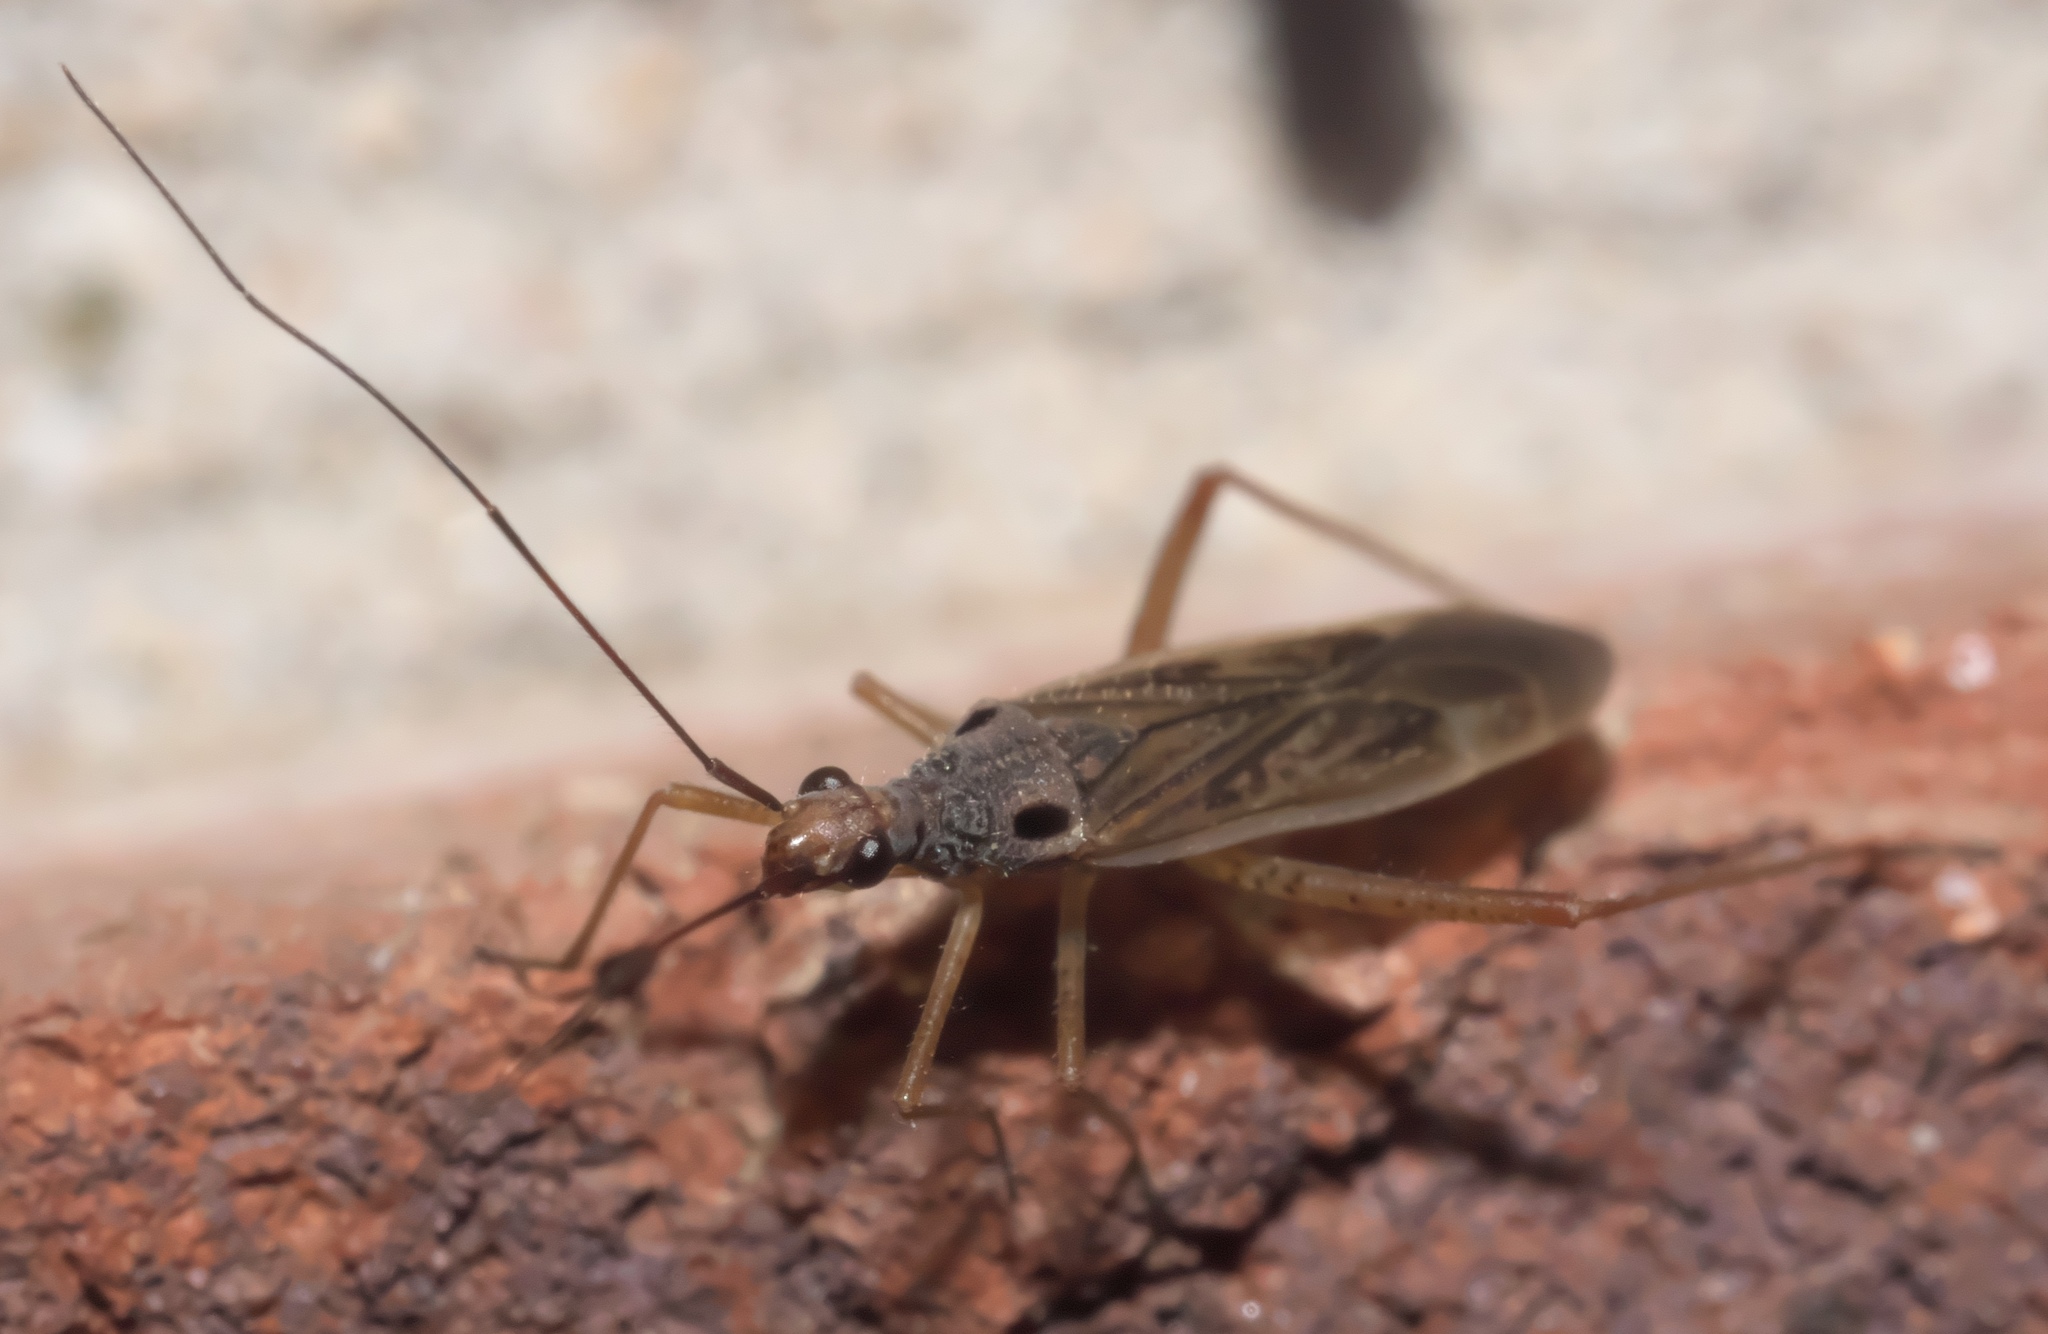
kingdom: Animalia
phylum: Arthropoda
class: Insecta
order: Hemiptera
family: Miridae
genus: Collaria
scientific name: Collaria oculata
